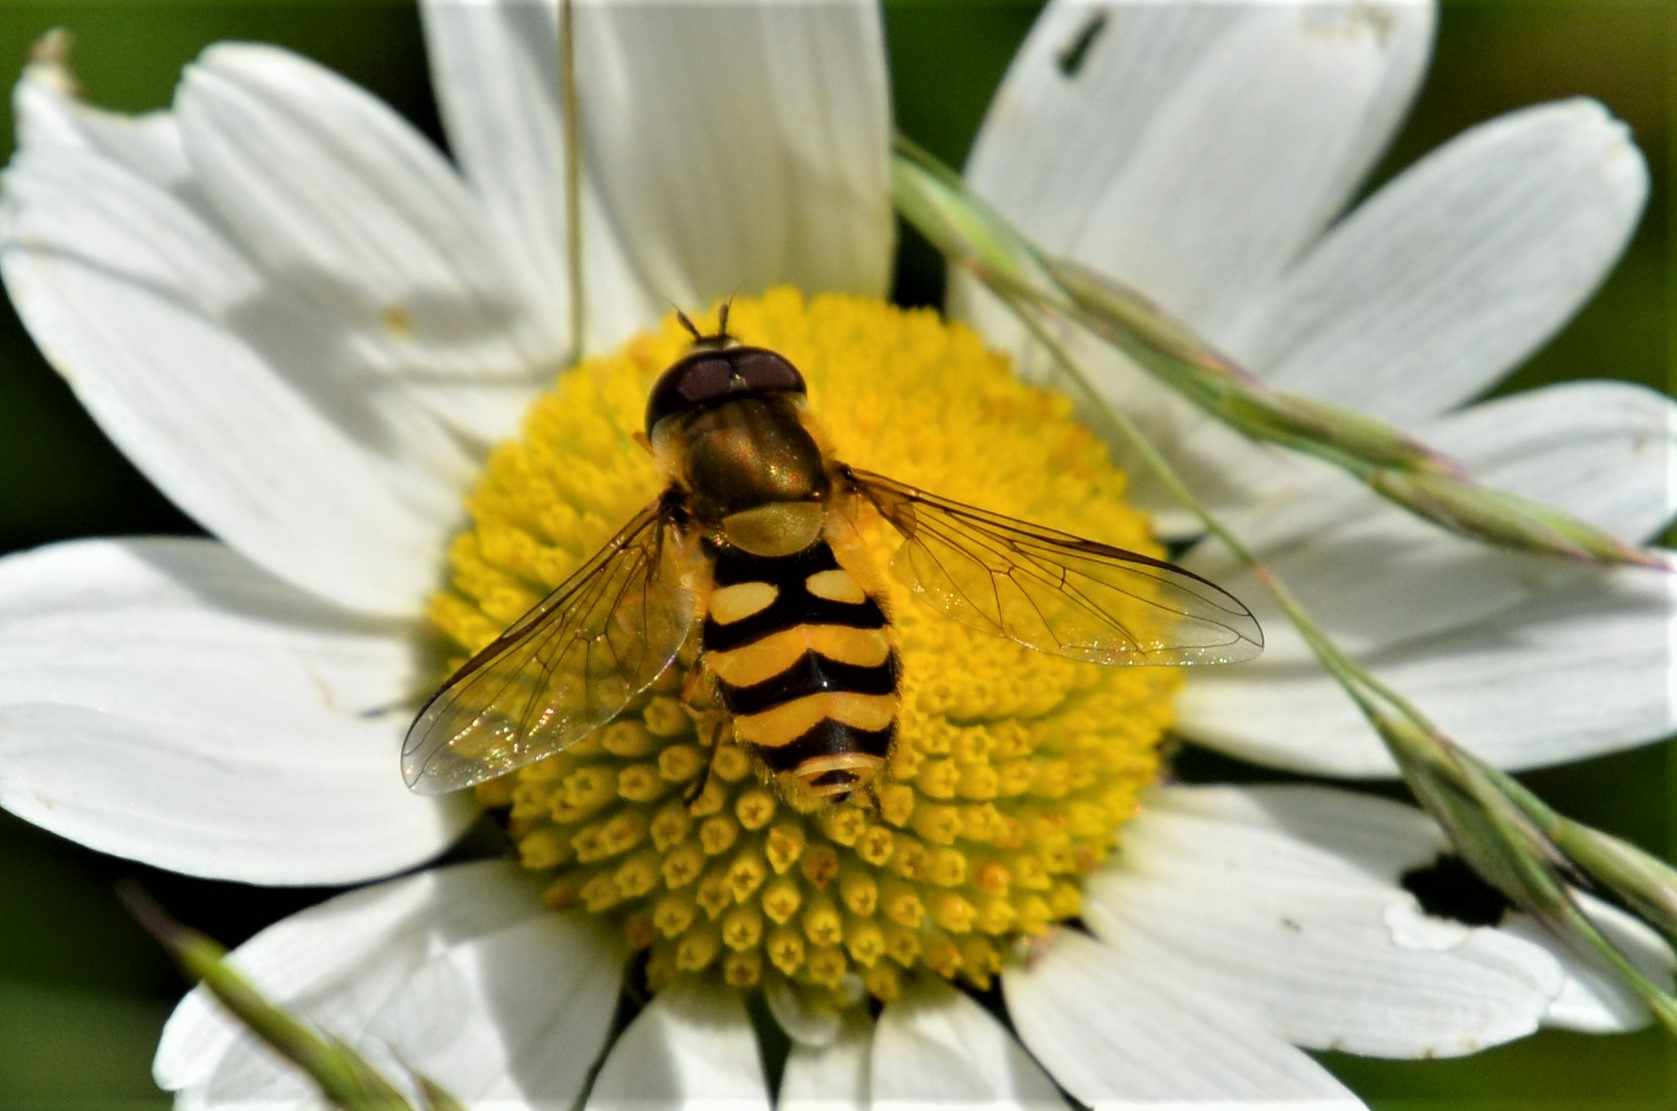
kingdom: Animalia
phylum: Arthropoda
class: Insecta
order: Diptera
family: Syrphidae
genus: Syrphus
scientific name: Syrphus
